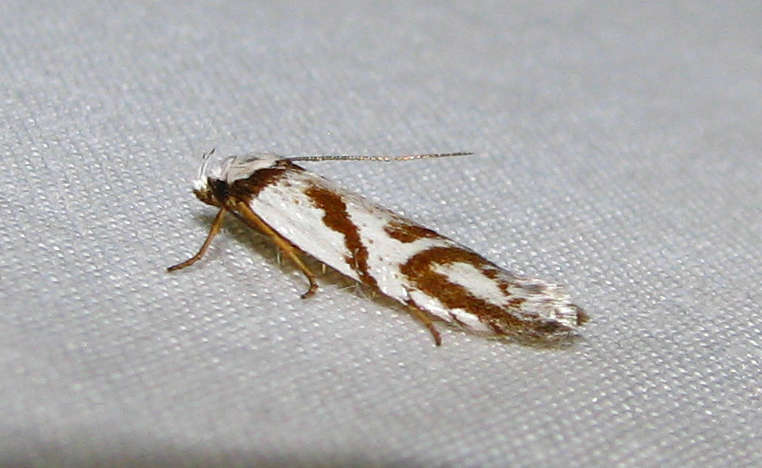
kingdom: Animalia
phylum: Arthropoda
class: Insecta
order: Lepidoptera
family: Oecophoridae
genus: Oxythecta
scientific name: Oxythecta acceptella
